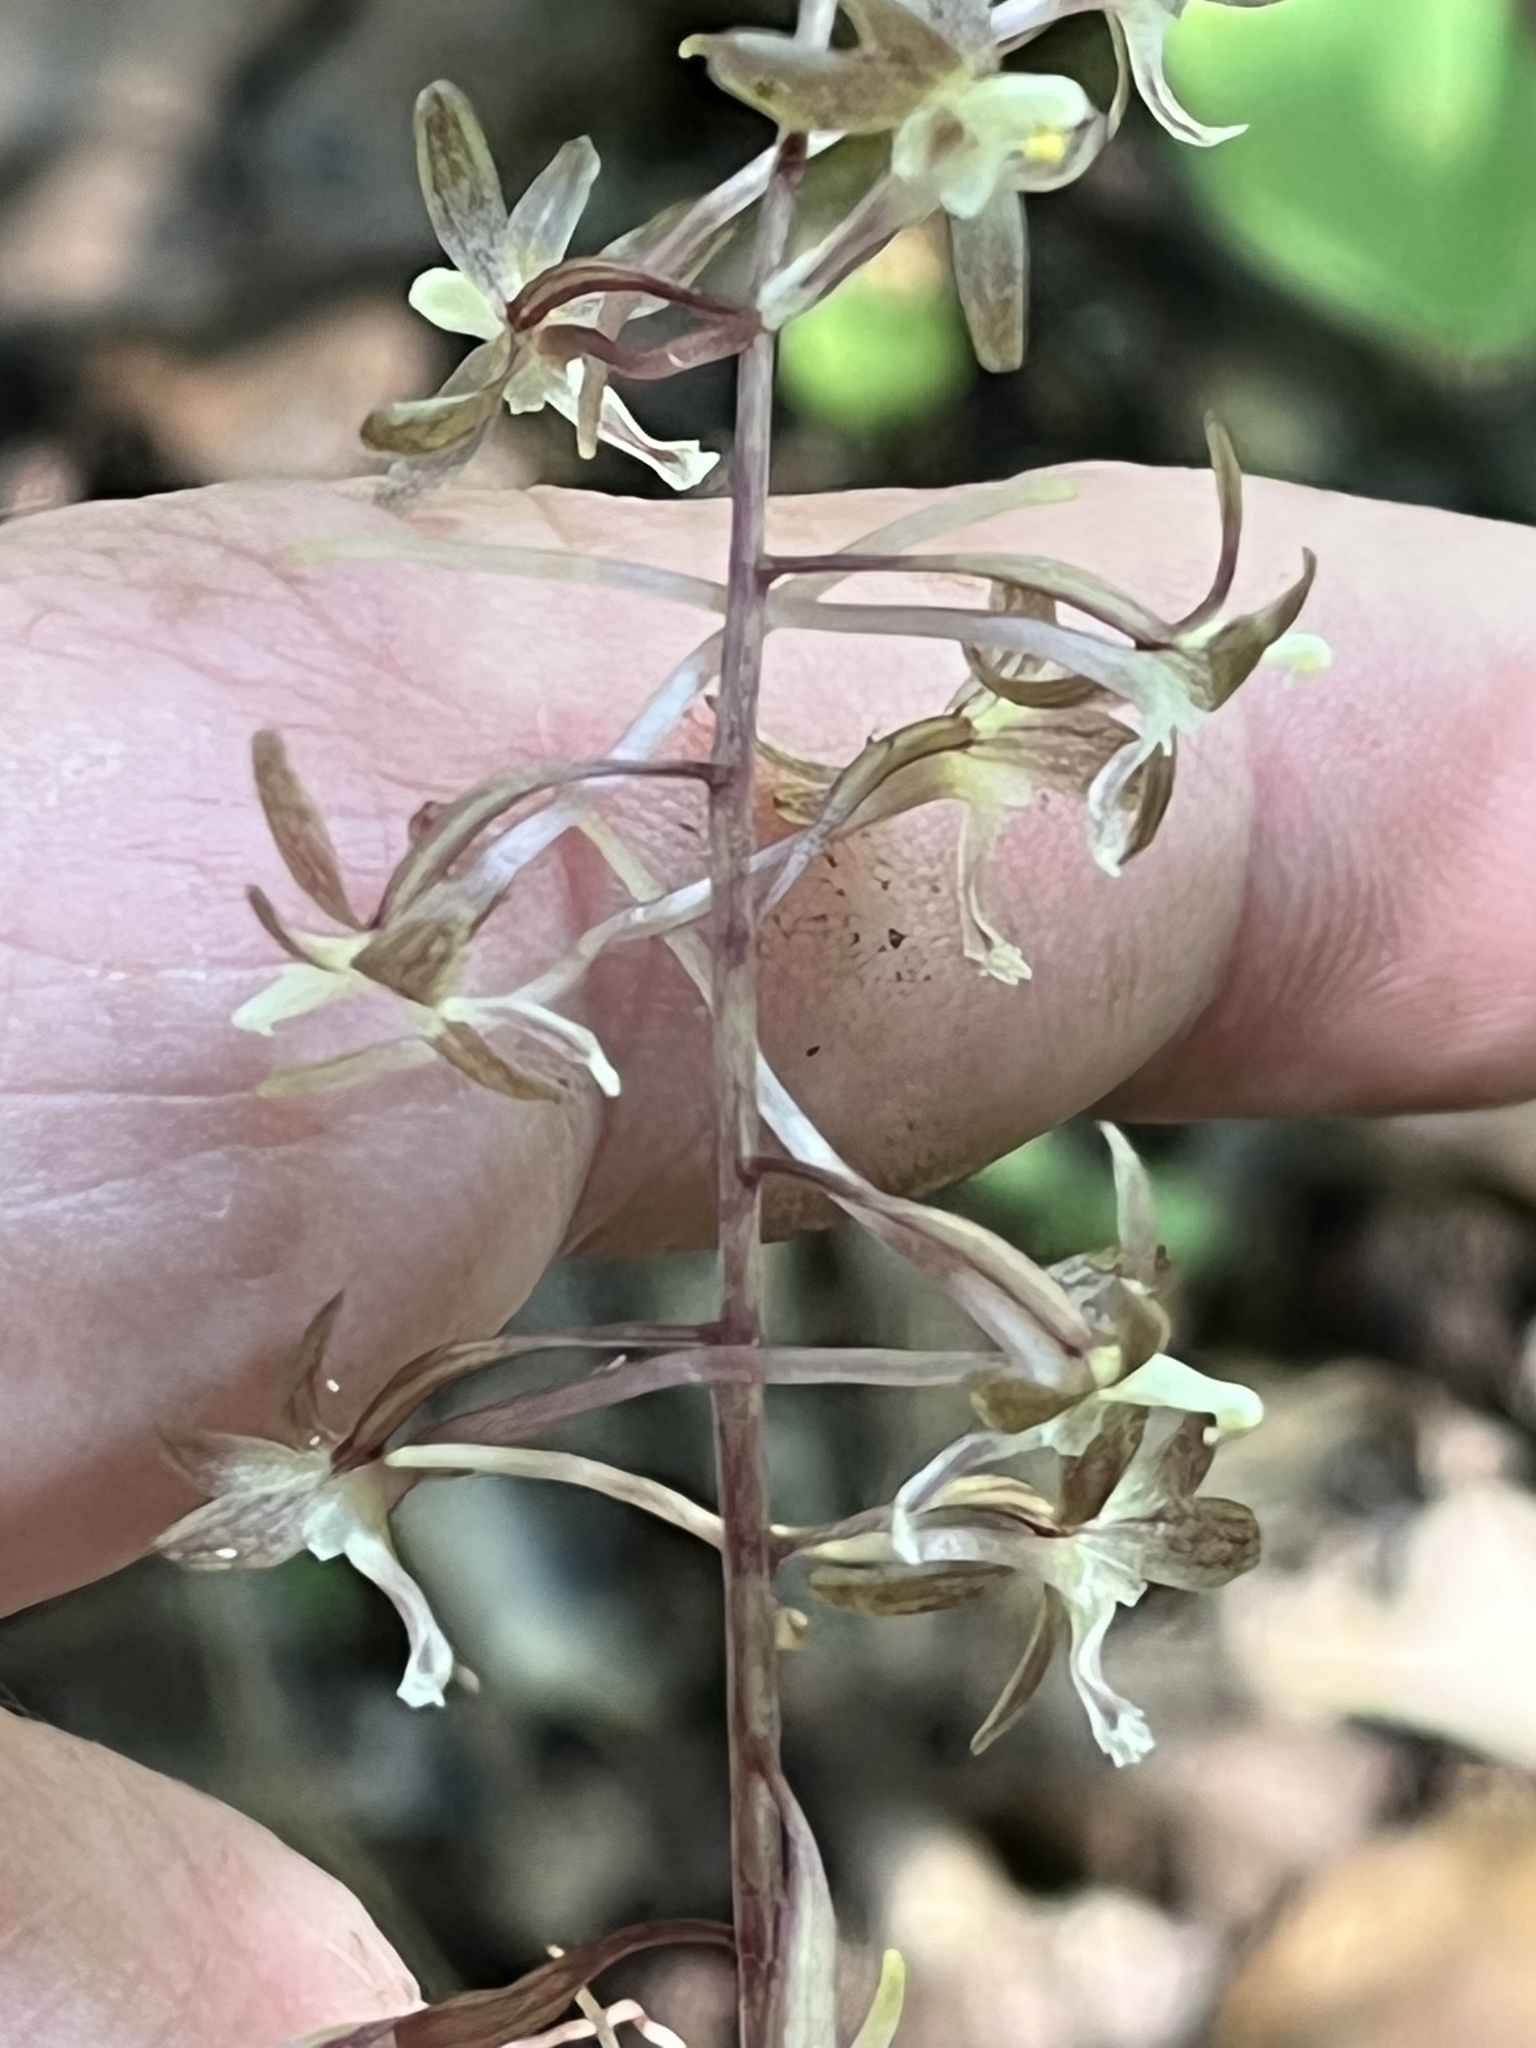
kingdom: Plantae
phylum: Tracheophyta
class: Liliopsida
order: Asparagales
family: Orchidaceae
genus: Tipularia
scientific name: Tipularia discolor
